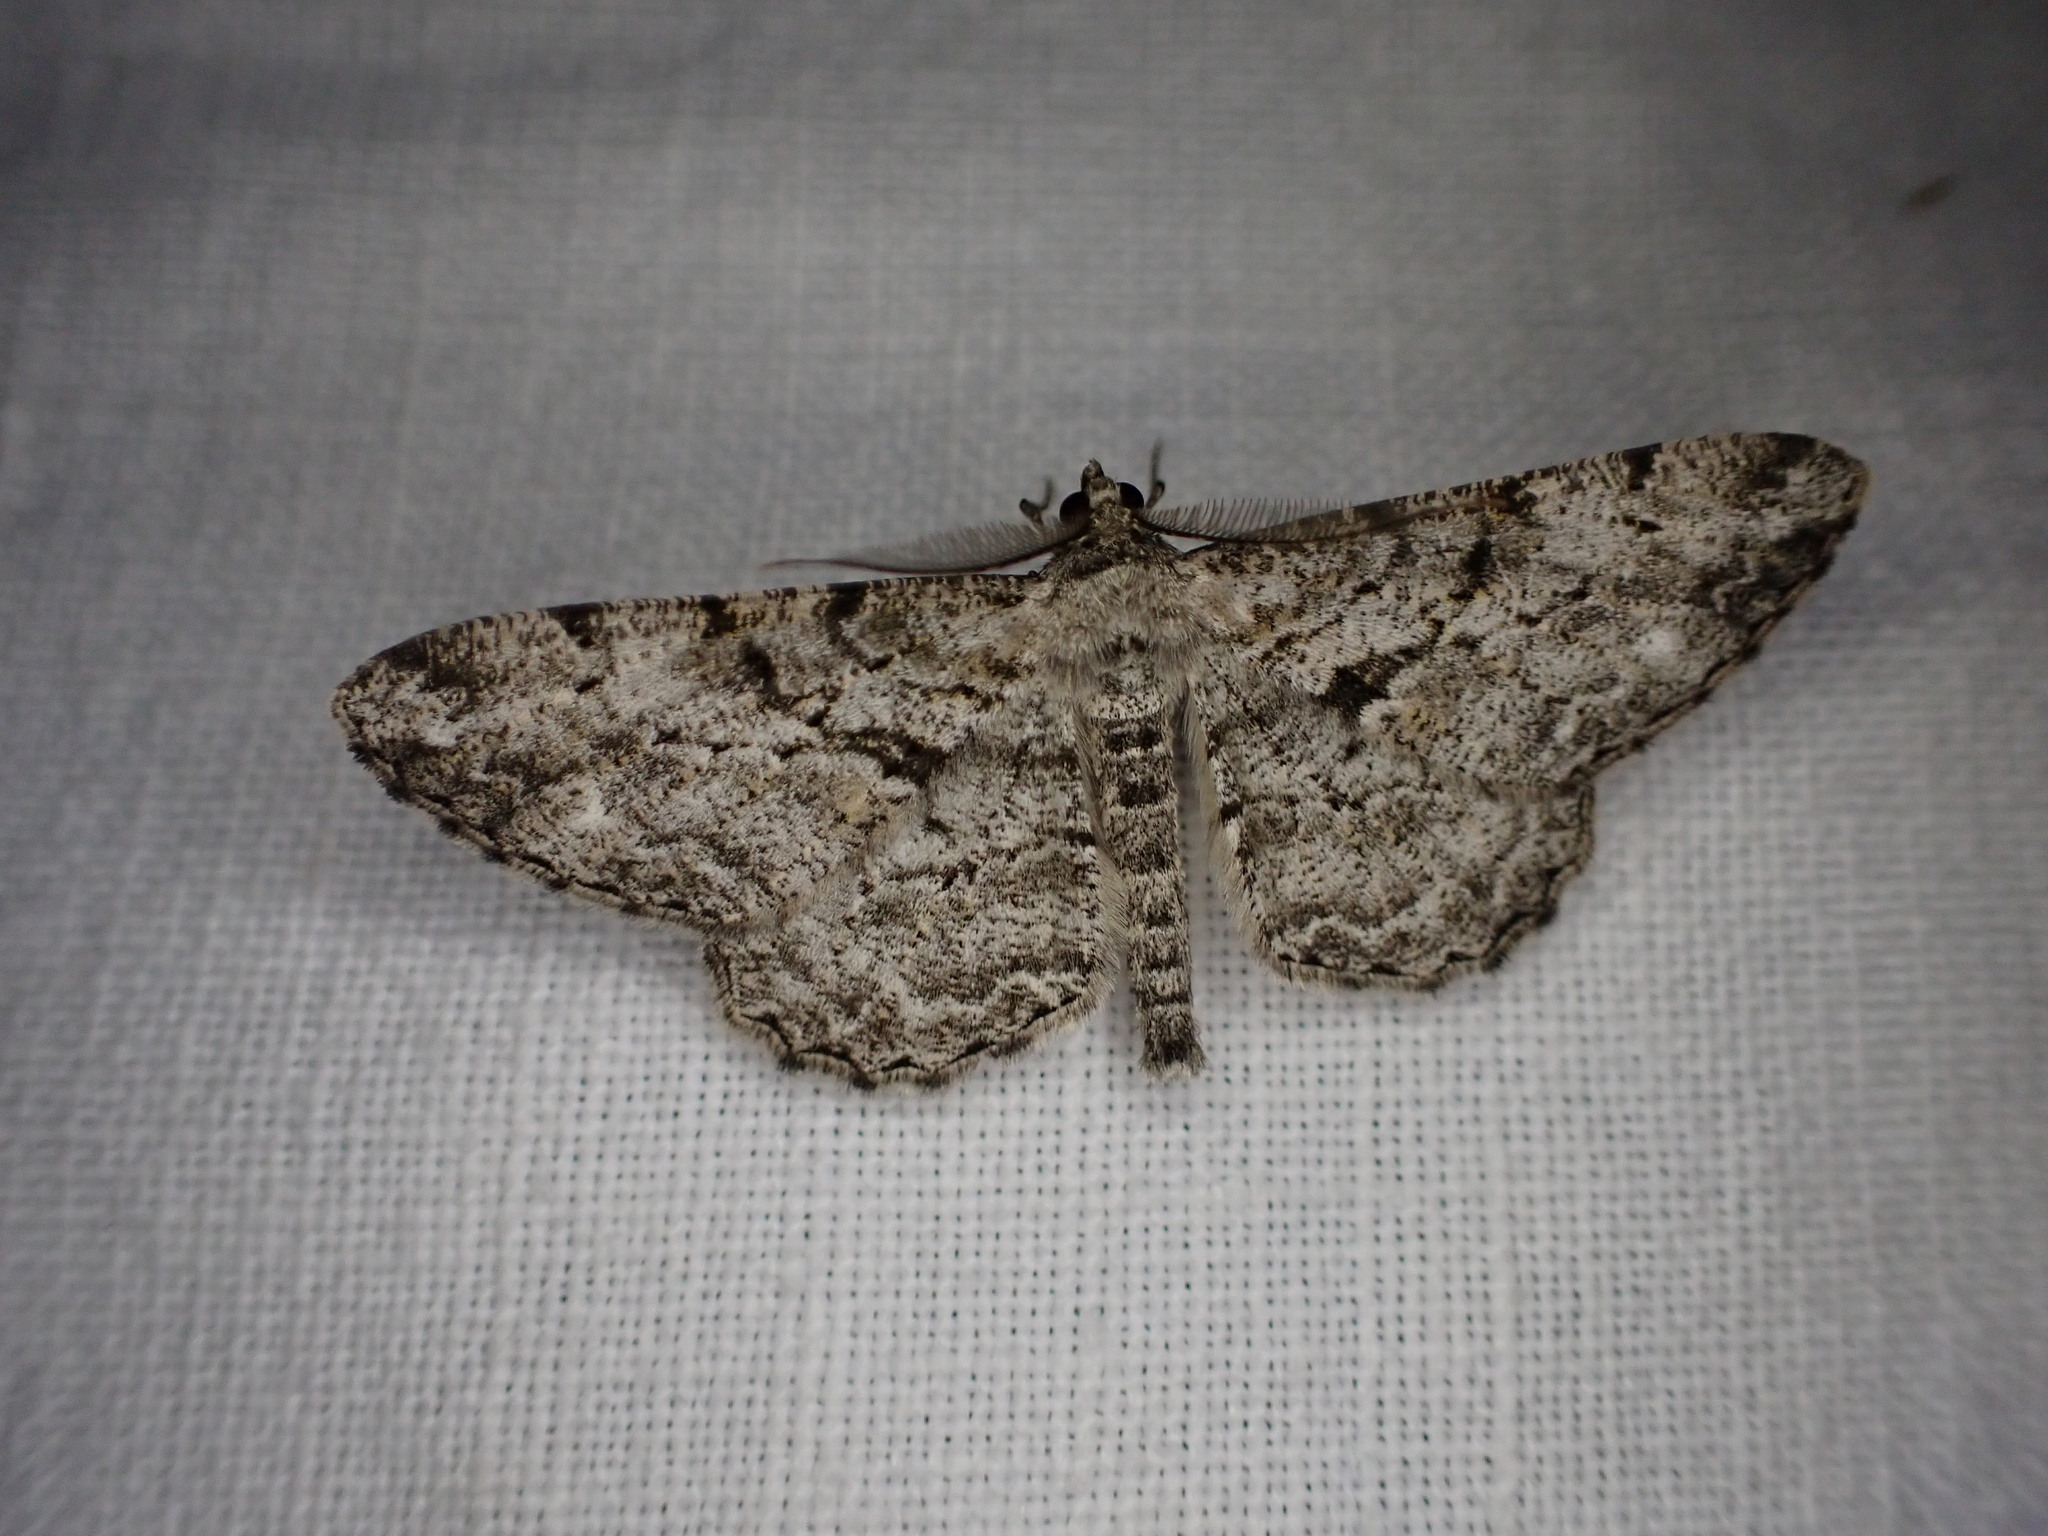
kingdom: Animalia
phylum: Arthropoda
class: Insecta
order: Lepidoptera
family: Geometridae
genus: Peribatodes
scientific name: Peribatodes rhomboidaria
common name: Willow beauty
